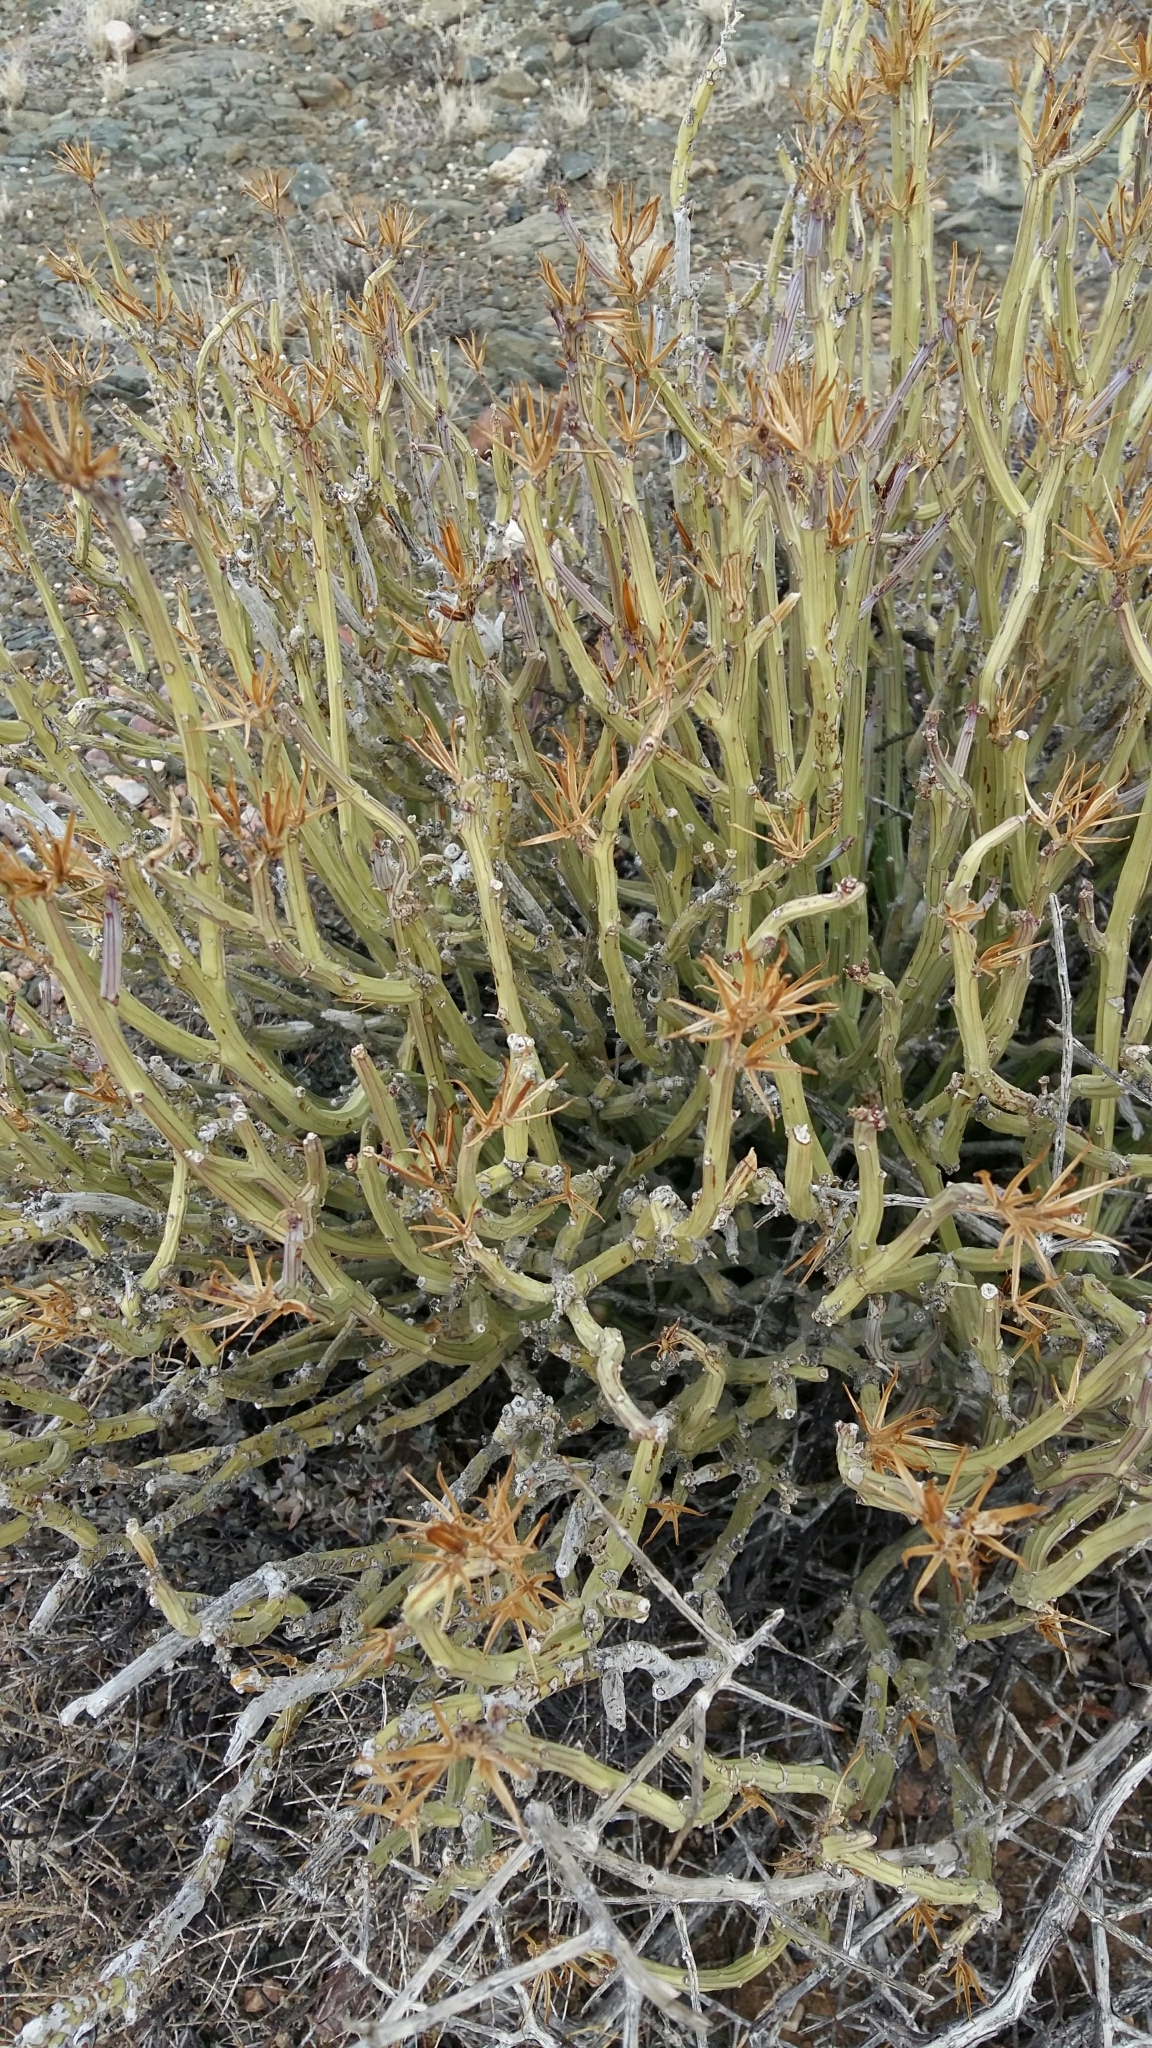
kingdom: Plantae
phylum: Tracheophyta
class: Magnoliopsida
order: Asterales
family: Asteraceae
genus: Curio
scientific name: Curio avasimontanus
